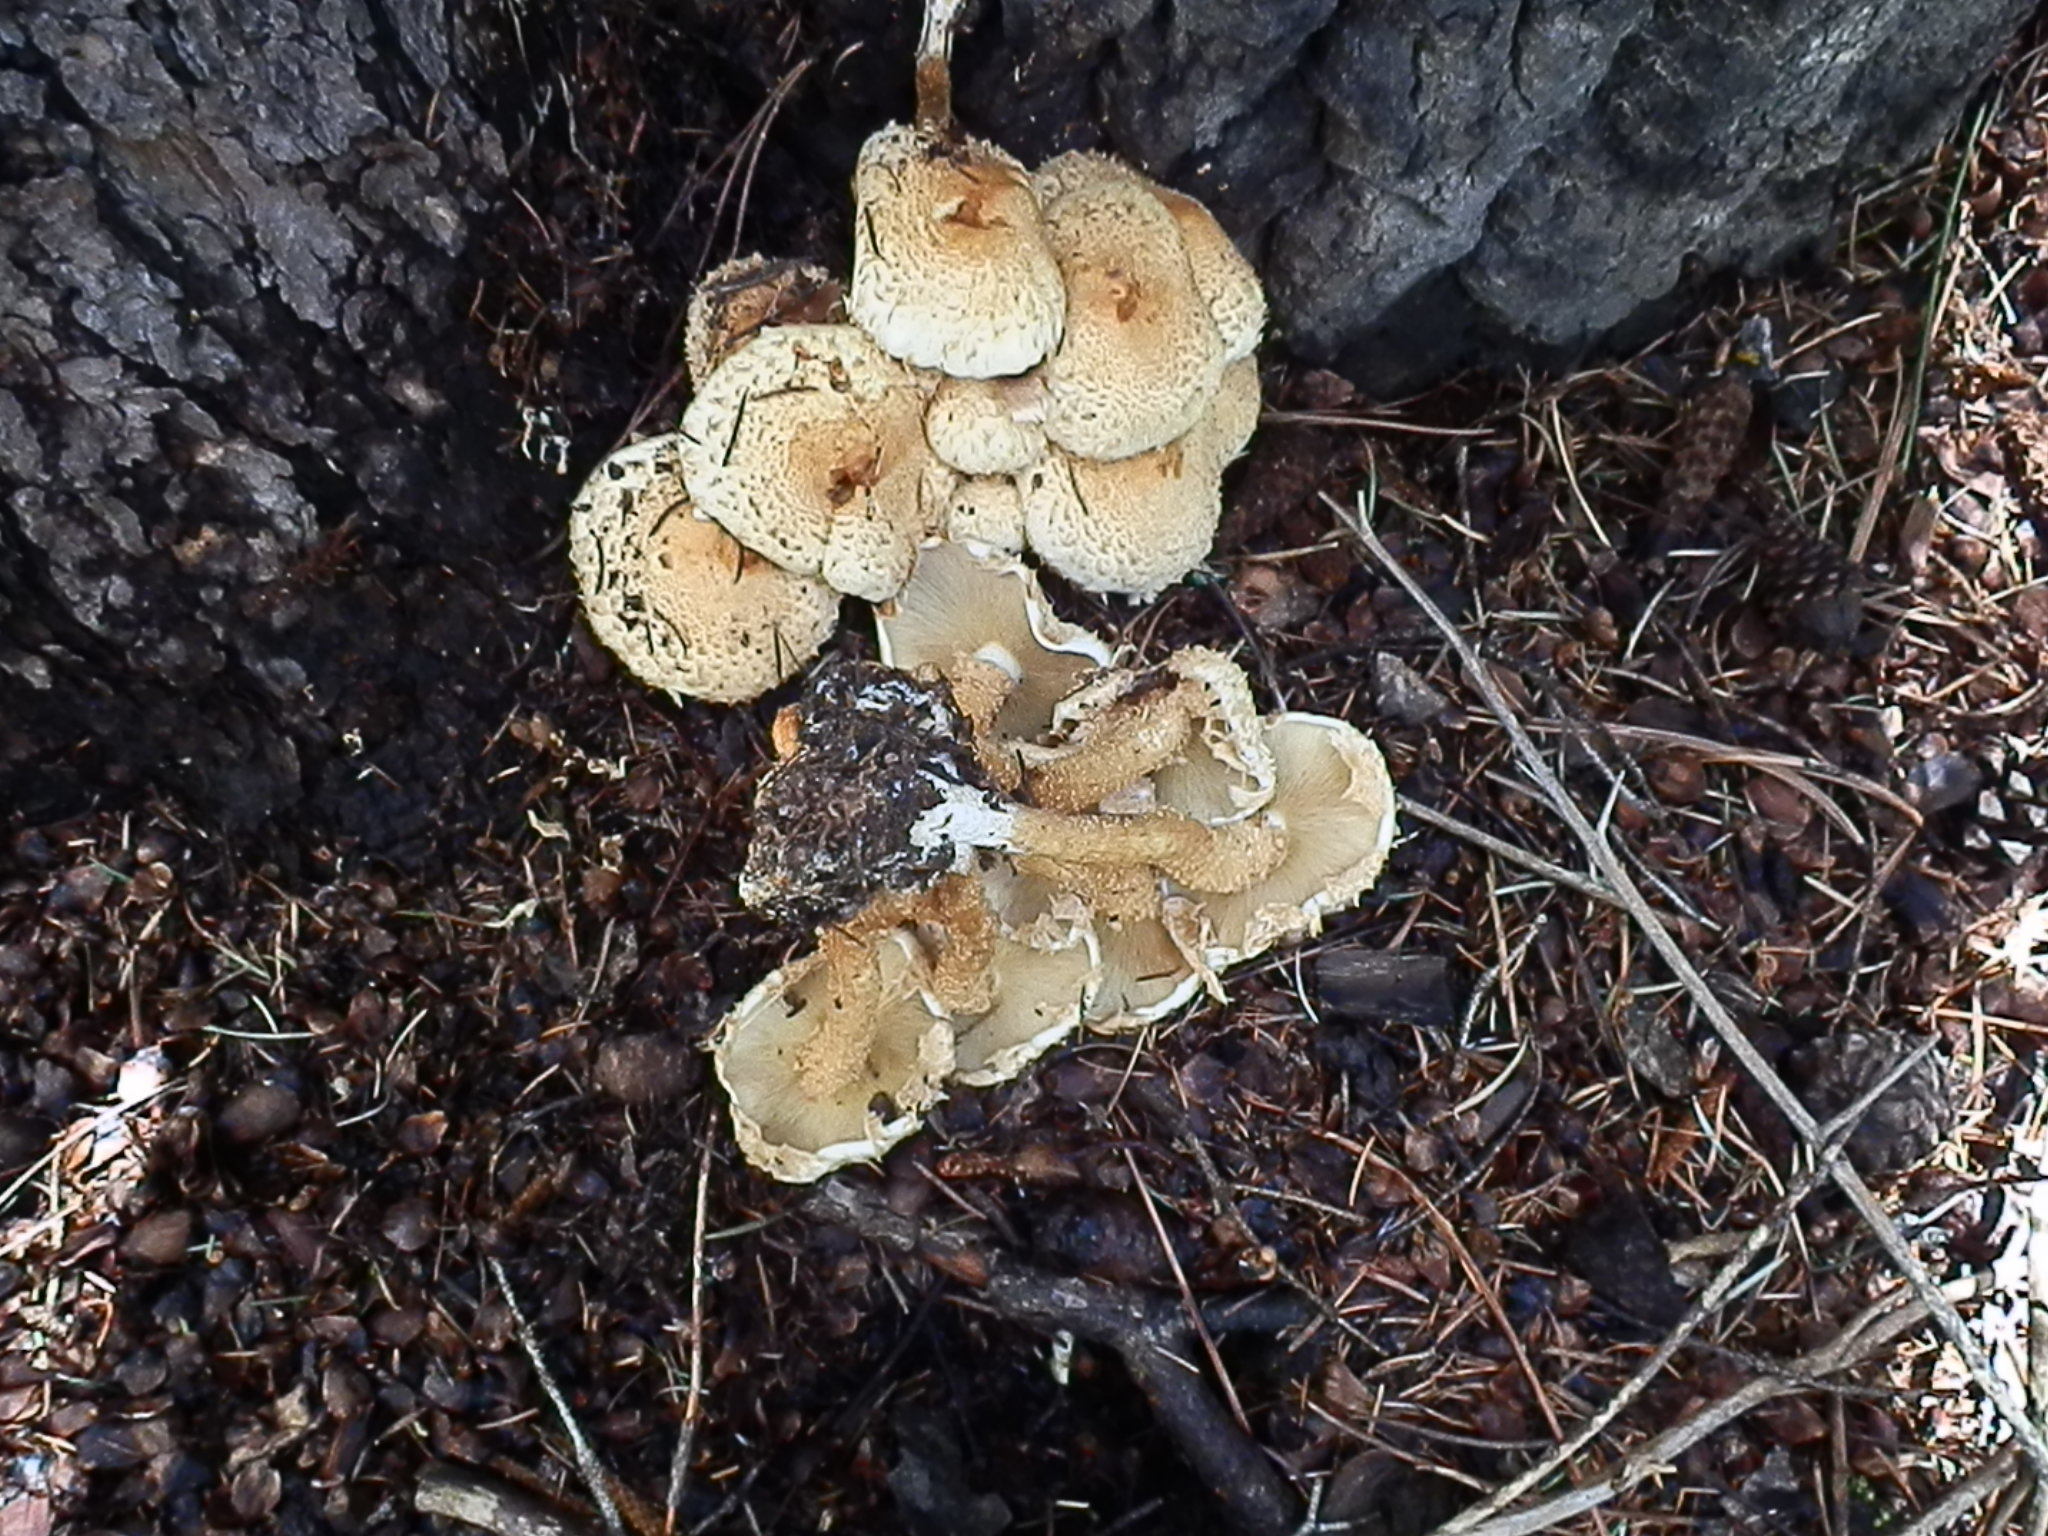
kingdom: Fungi
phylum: Basidiomycota
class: Agaricomycetes
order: Agaricales
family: Strophariaceae
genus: Pholiota
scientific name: Pholiota squarrosa
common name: Shaggy pholiota
